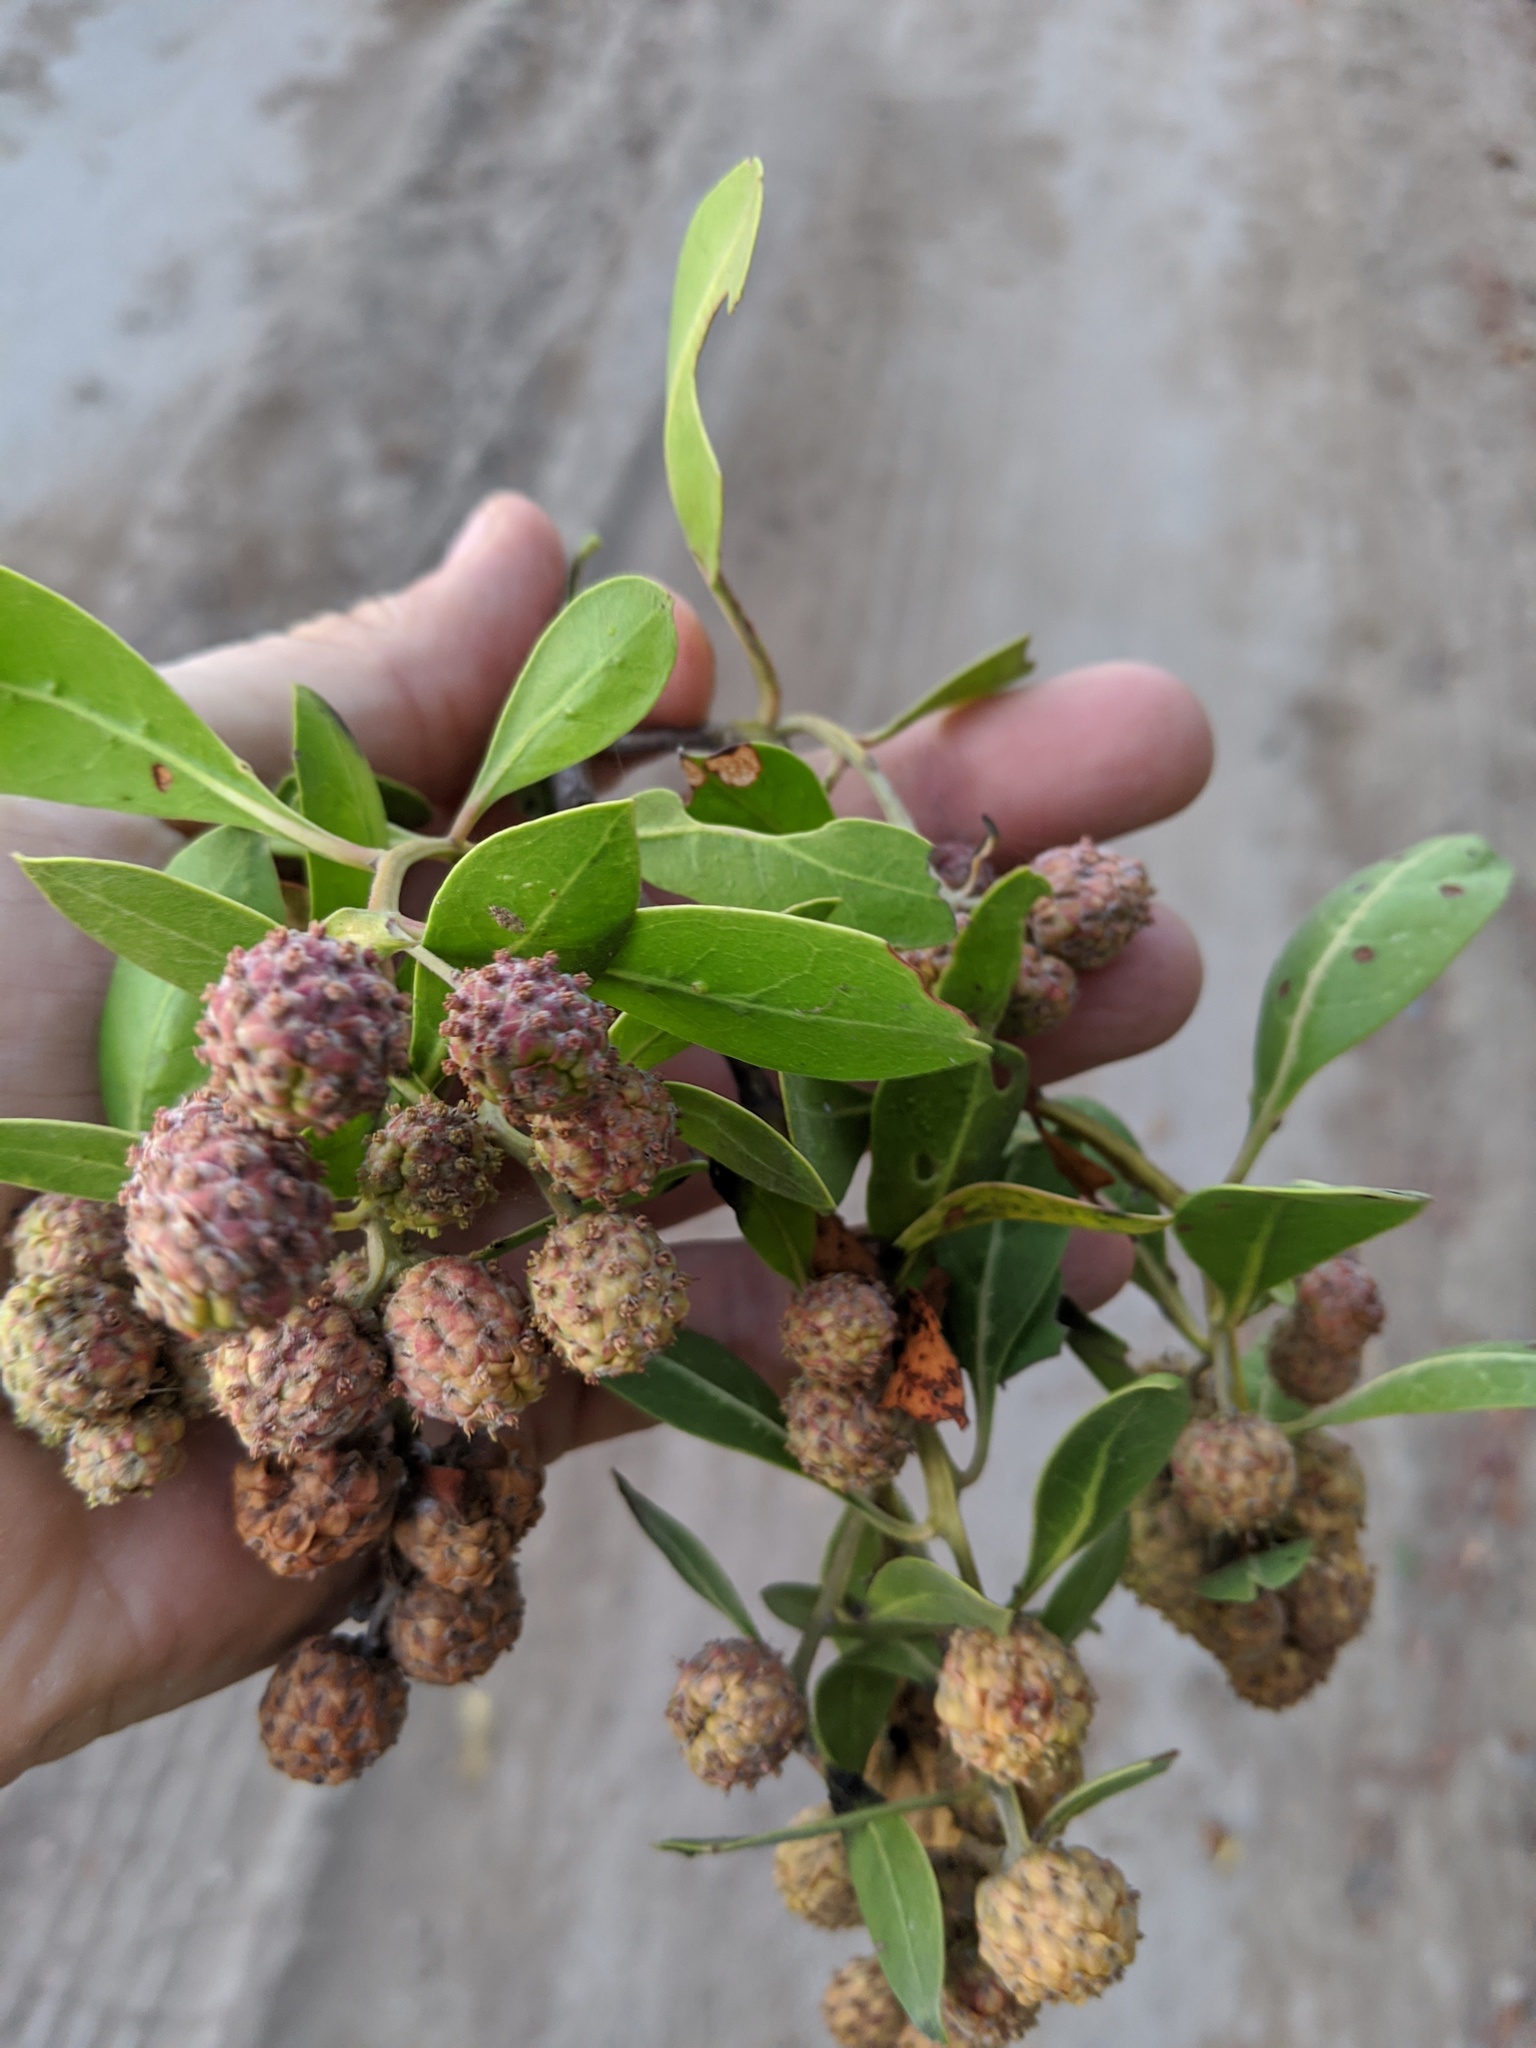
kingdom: Plantae
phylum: Tracheophyta
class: Magnoliopsida
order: Myrtales
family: Combretaceae
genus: Conocarpus
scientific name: Conocarpus erectus
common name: Button mangrove
